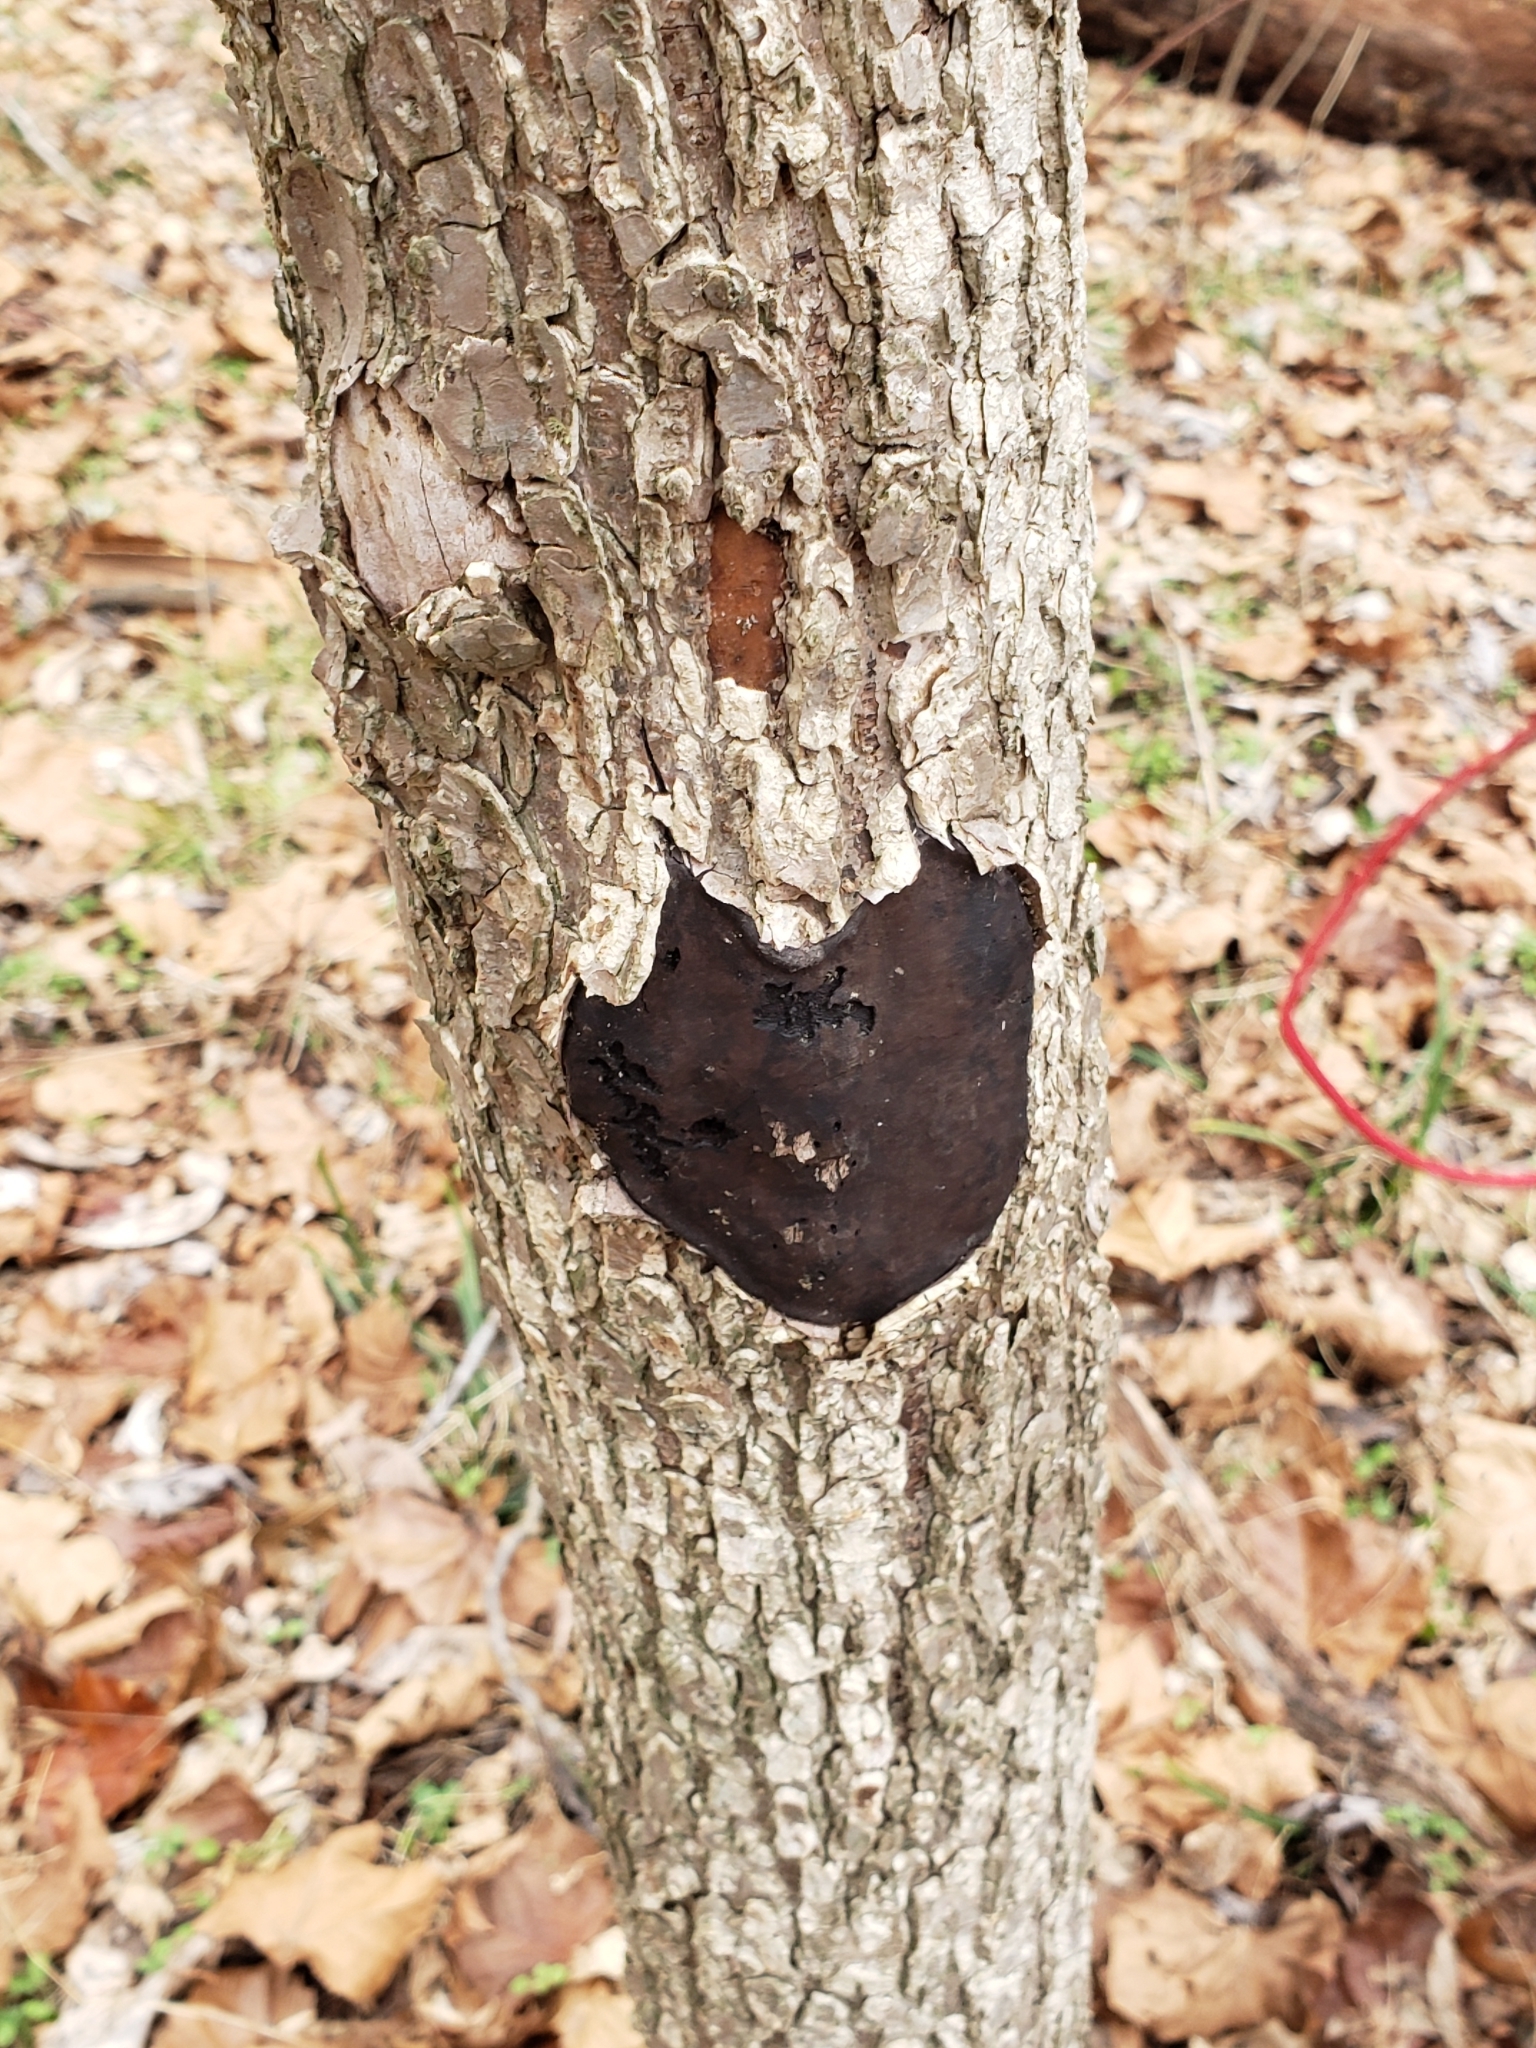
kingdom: Fungi
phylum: Ascomycota
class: Sordariomycetes
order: Xylariales
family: Diatrypaceae
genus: Diatrype
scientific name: Diatrype stigma
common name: Common tarcrust
